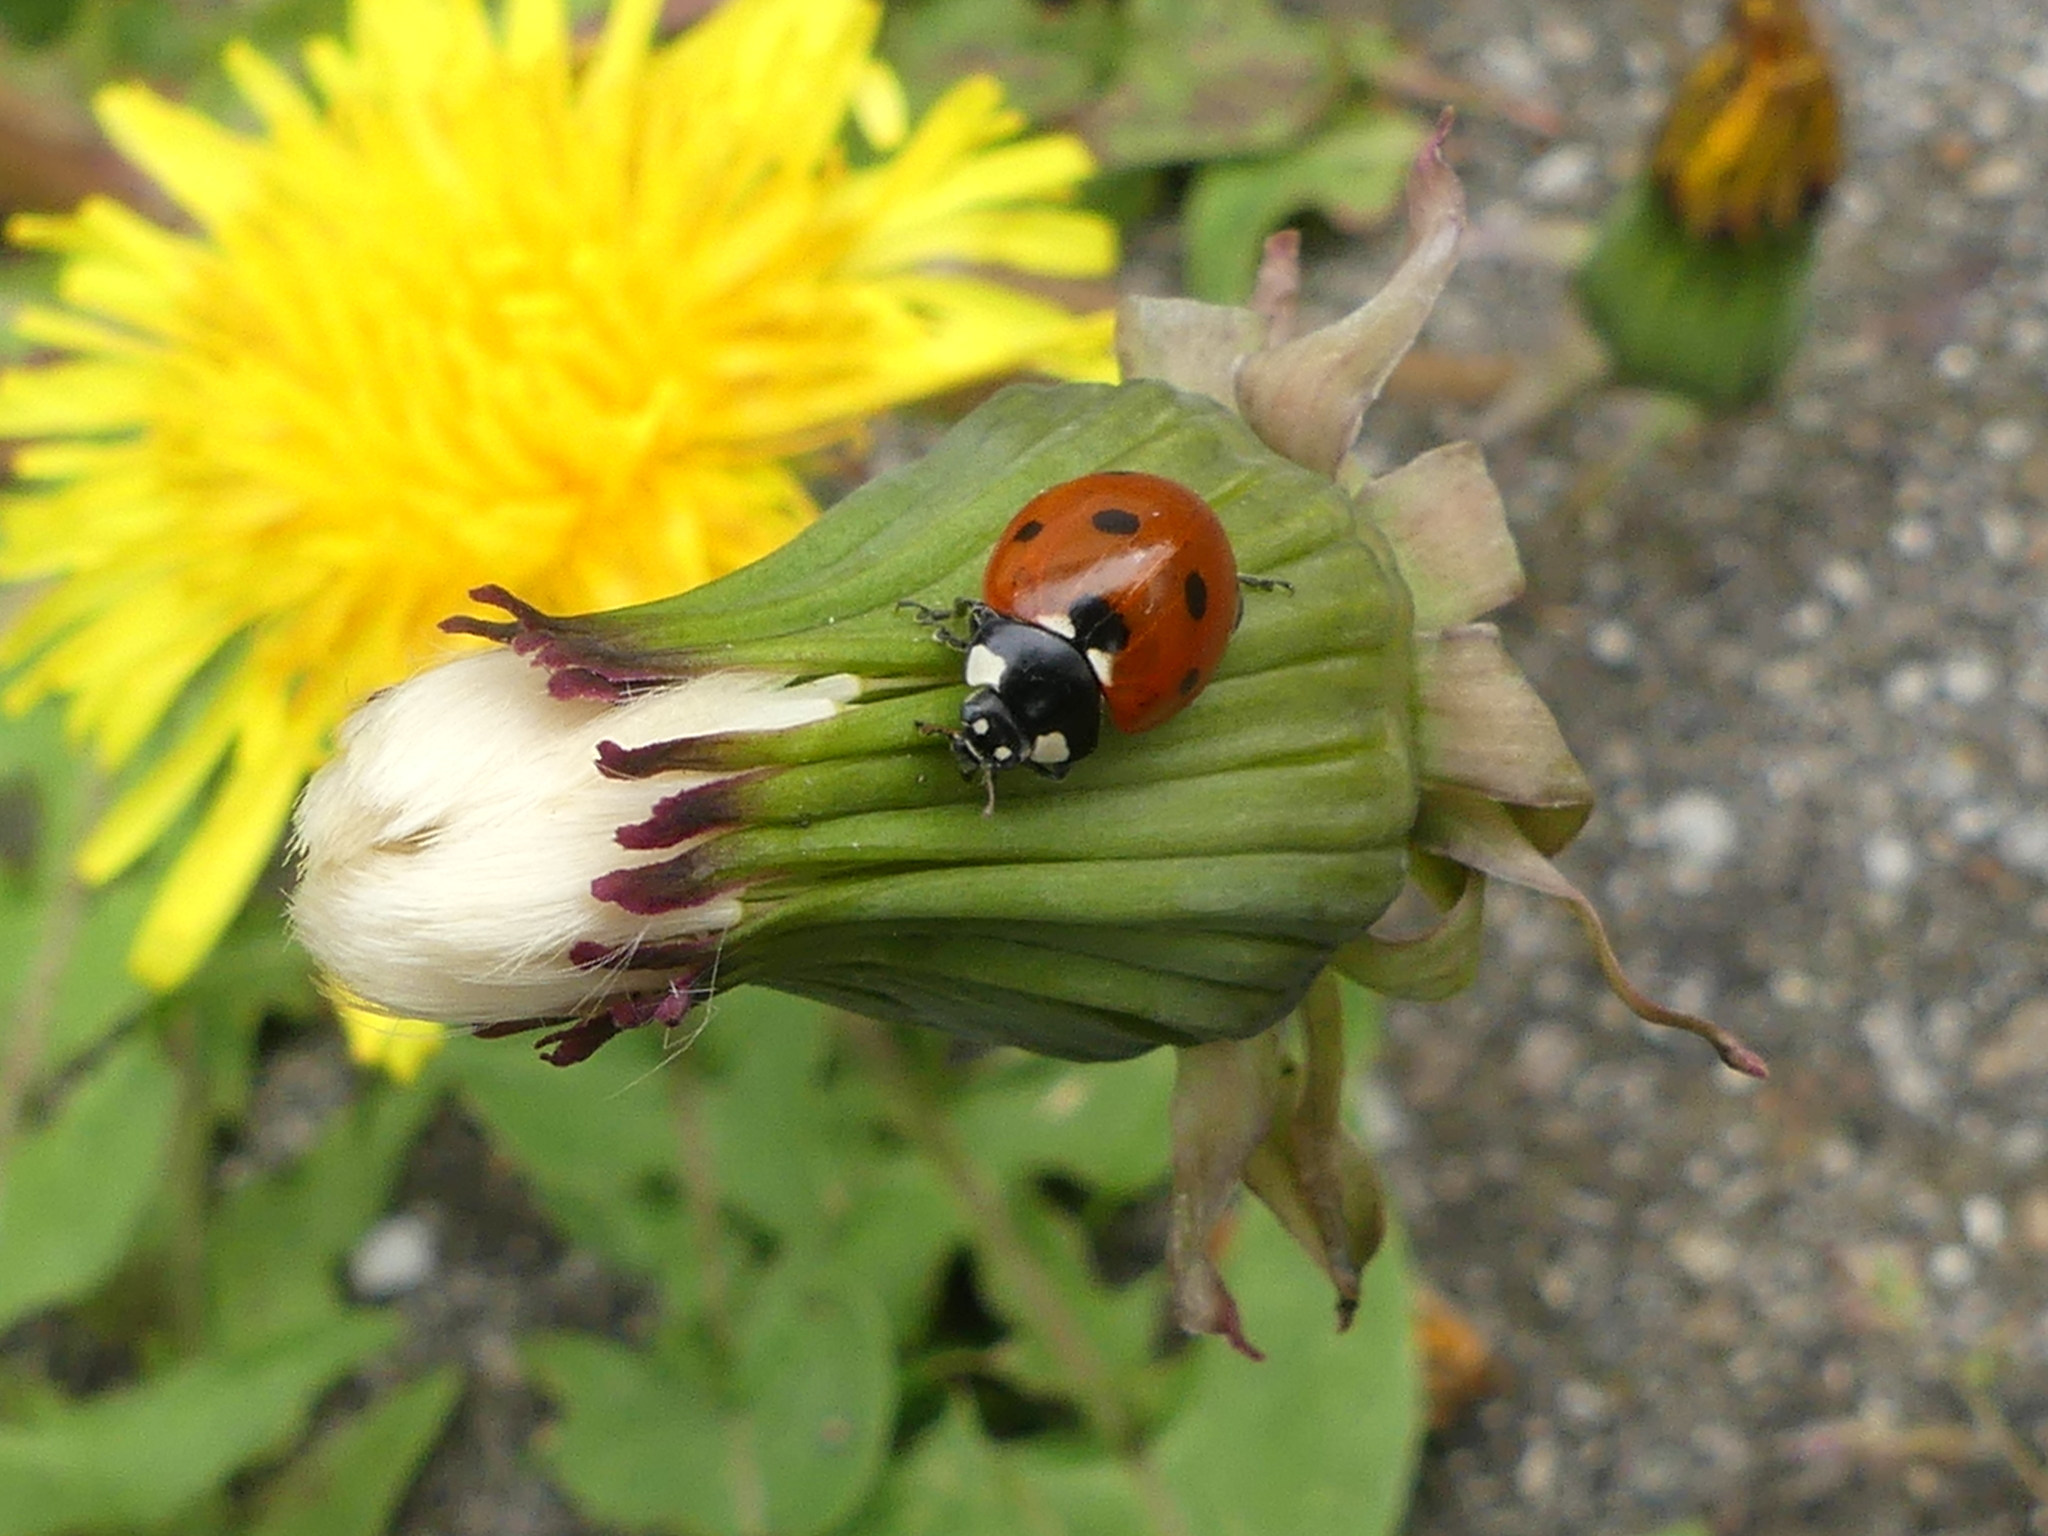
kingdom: Animalia
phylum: Arthropoda
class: Insecta
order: Coleoptera
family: Coccinellidae
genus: Coccinella
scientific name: Coccinella septempunctata
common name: Sevenspotted lady beetle
